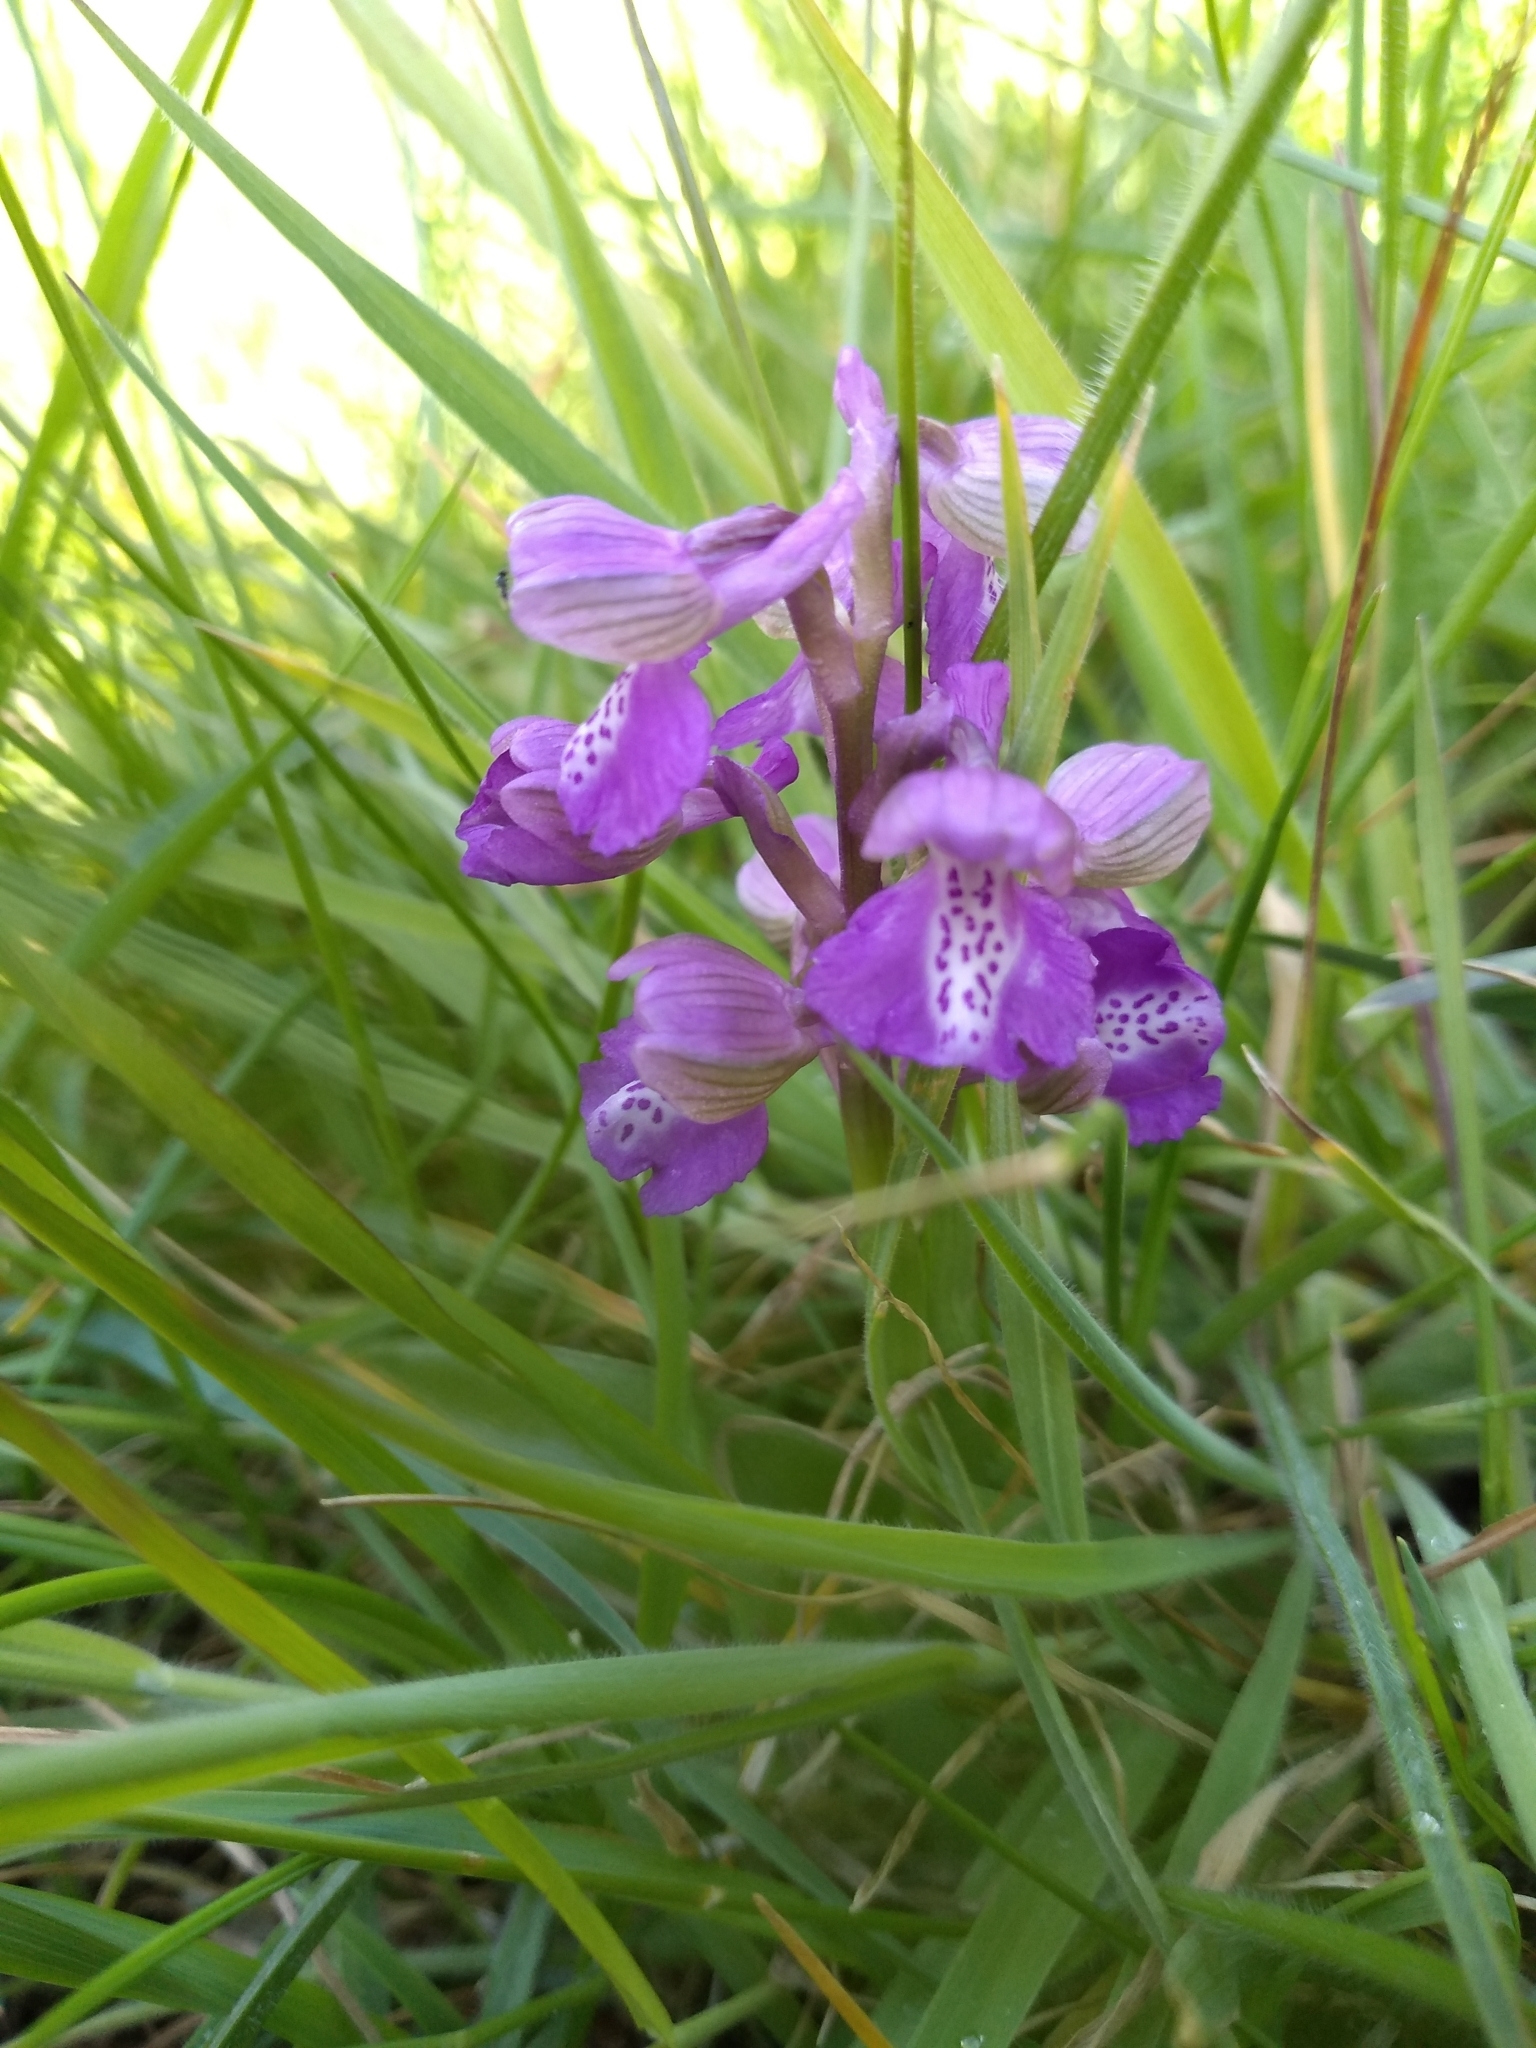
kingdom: Plantae
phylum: Tracheophyta
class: Liliopsida
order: Asparagales
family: Orchidaceae
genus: Anacamptis
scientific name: Anacamptis morio
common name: Green-winged orchid
